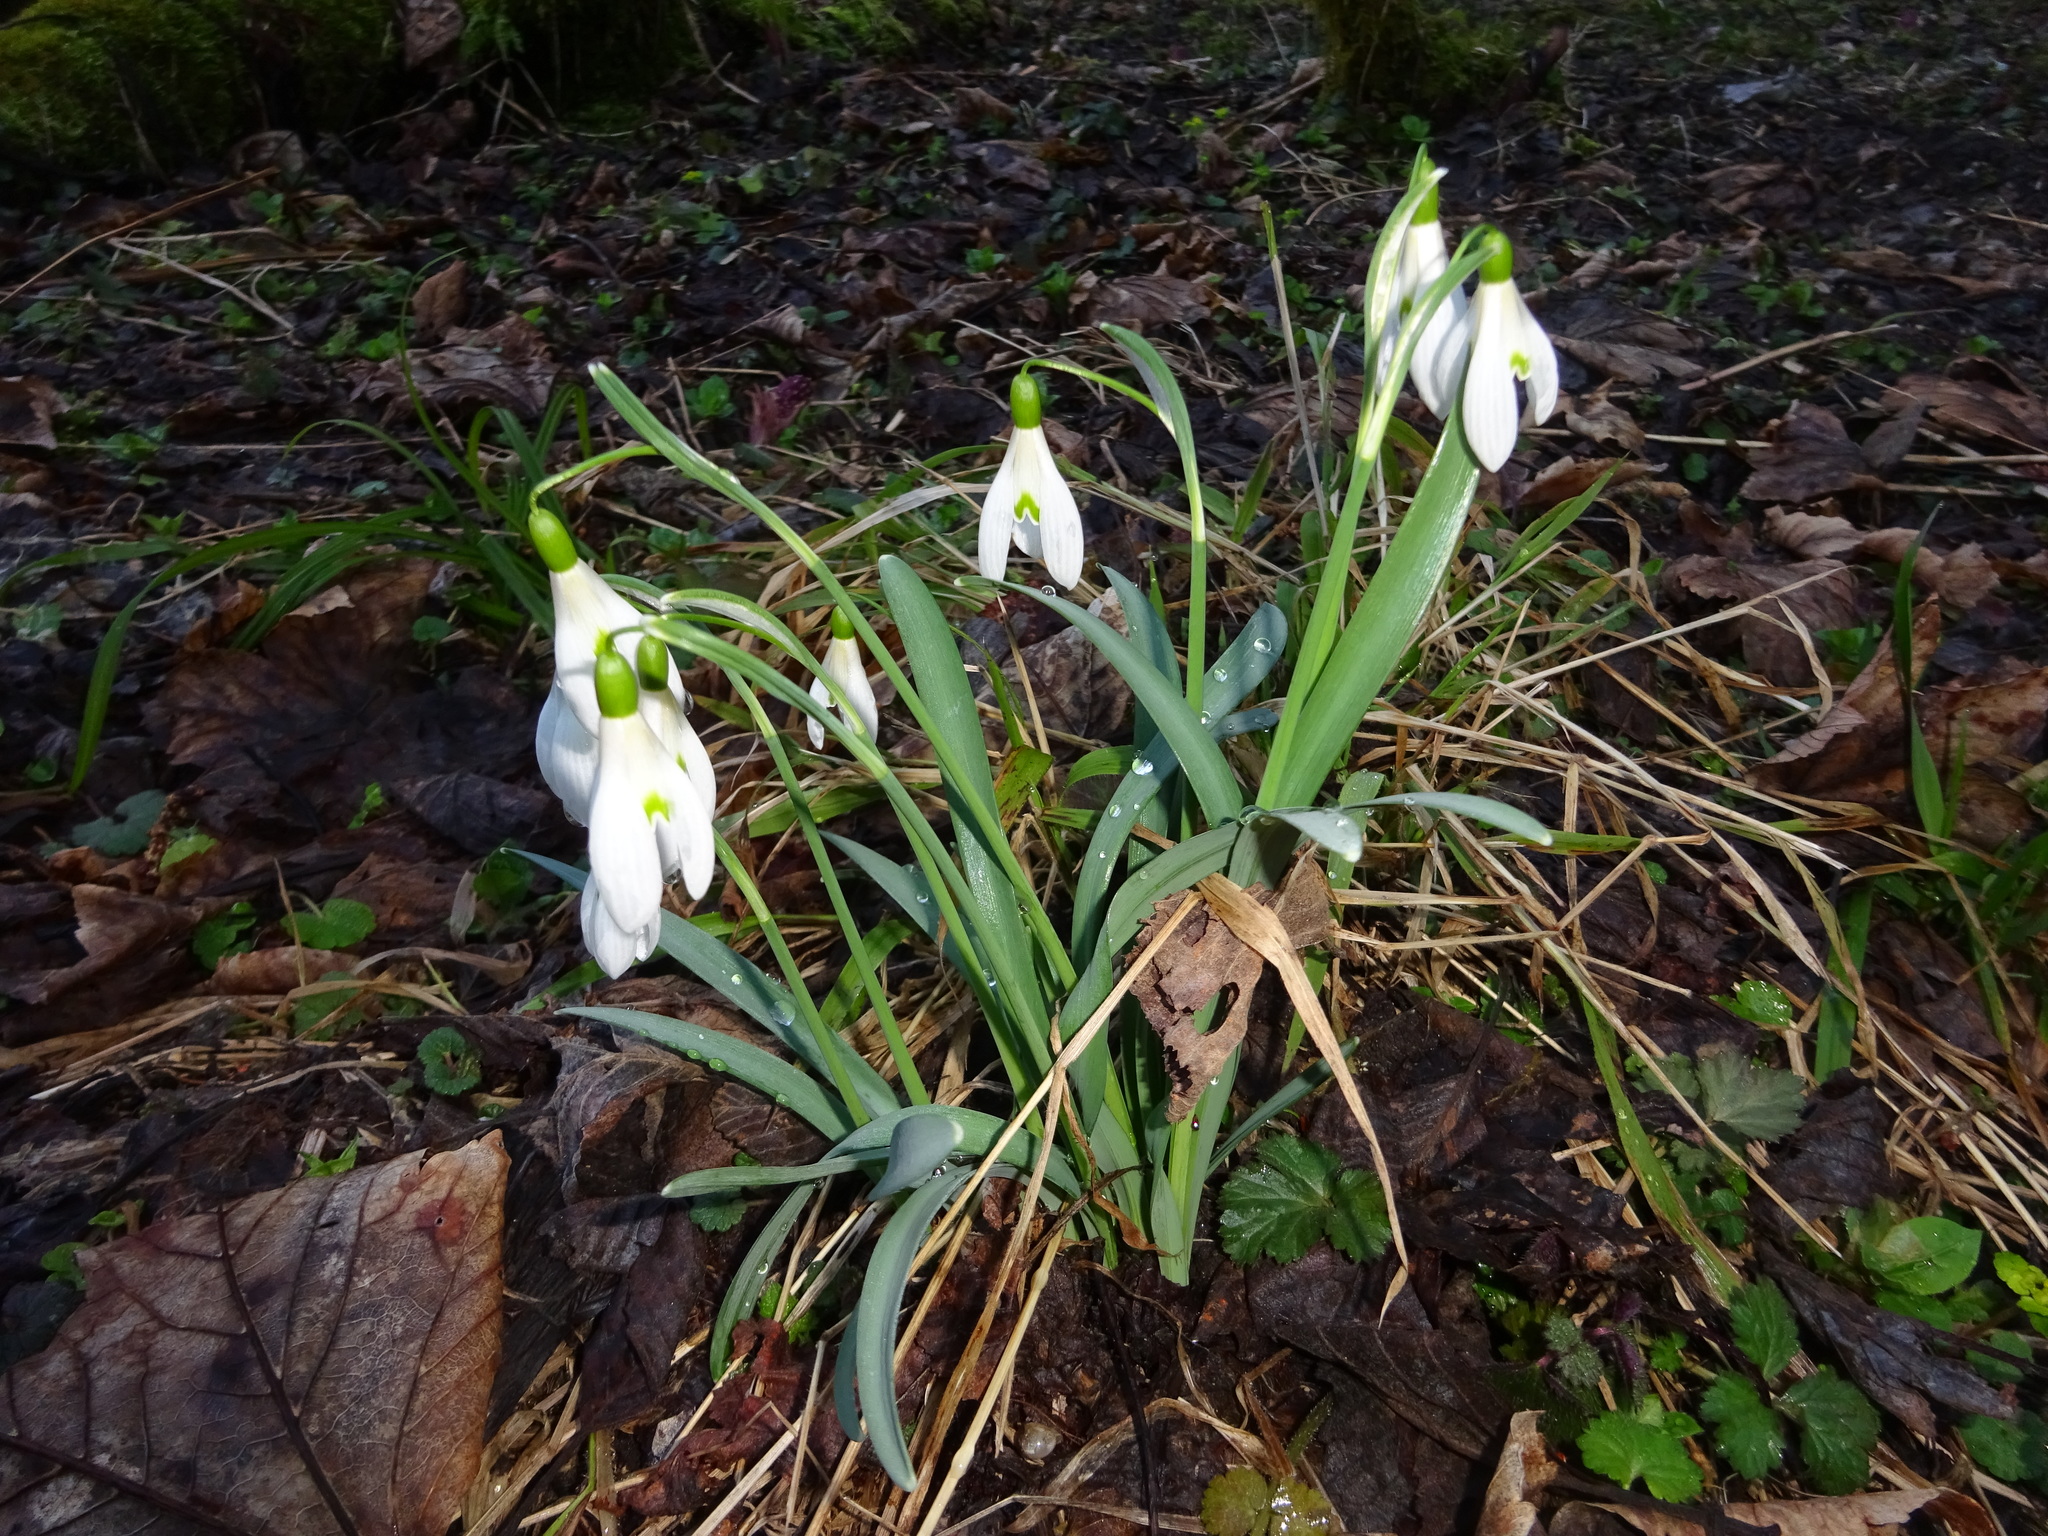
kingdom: Plantae
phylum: Tracheophyta
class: Liliopsida
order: Asparagales
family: Amaryllidaceae
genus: Galanthus
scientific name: Galanthus nivalis
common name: Snowdrop
